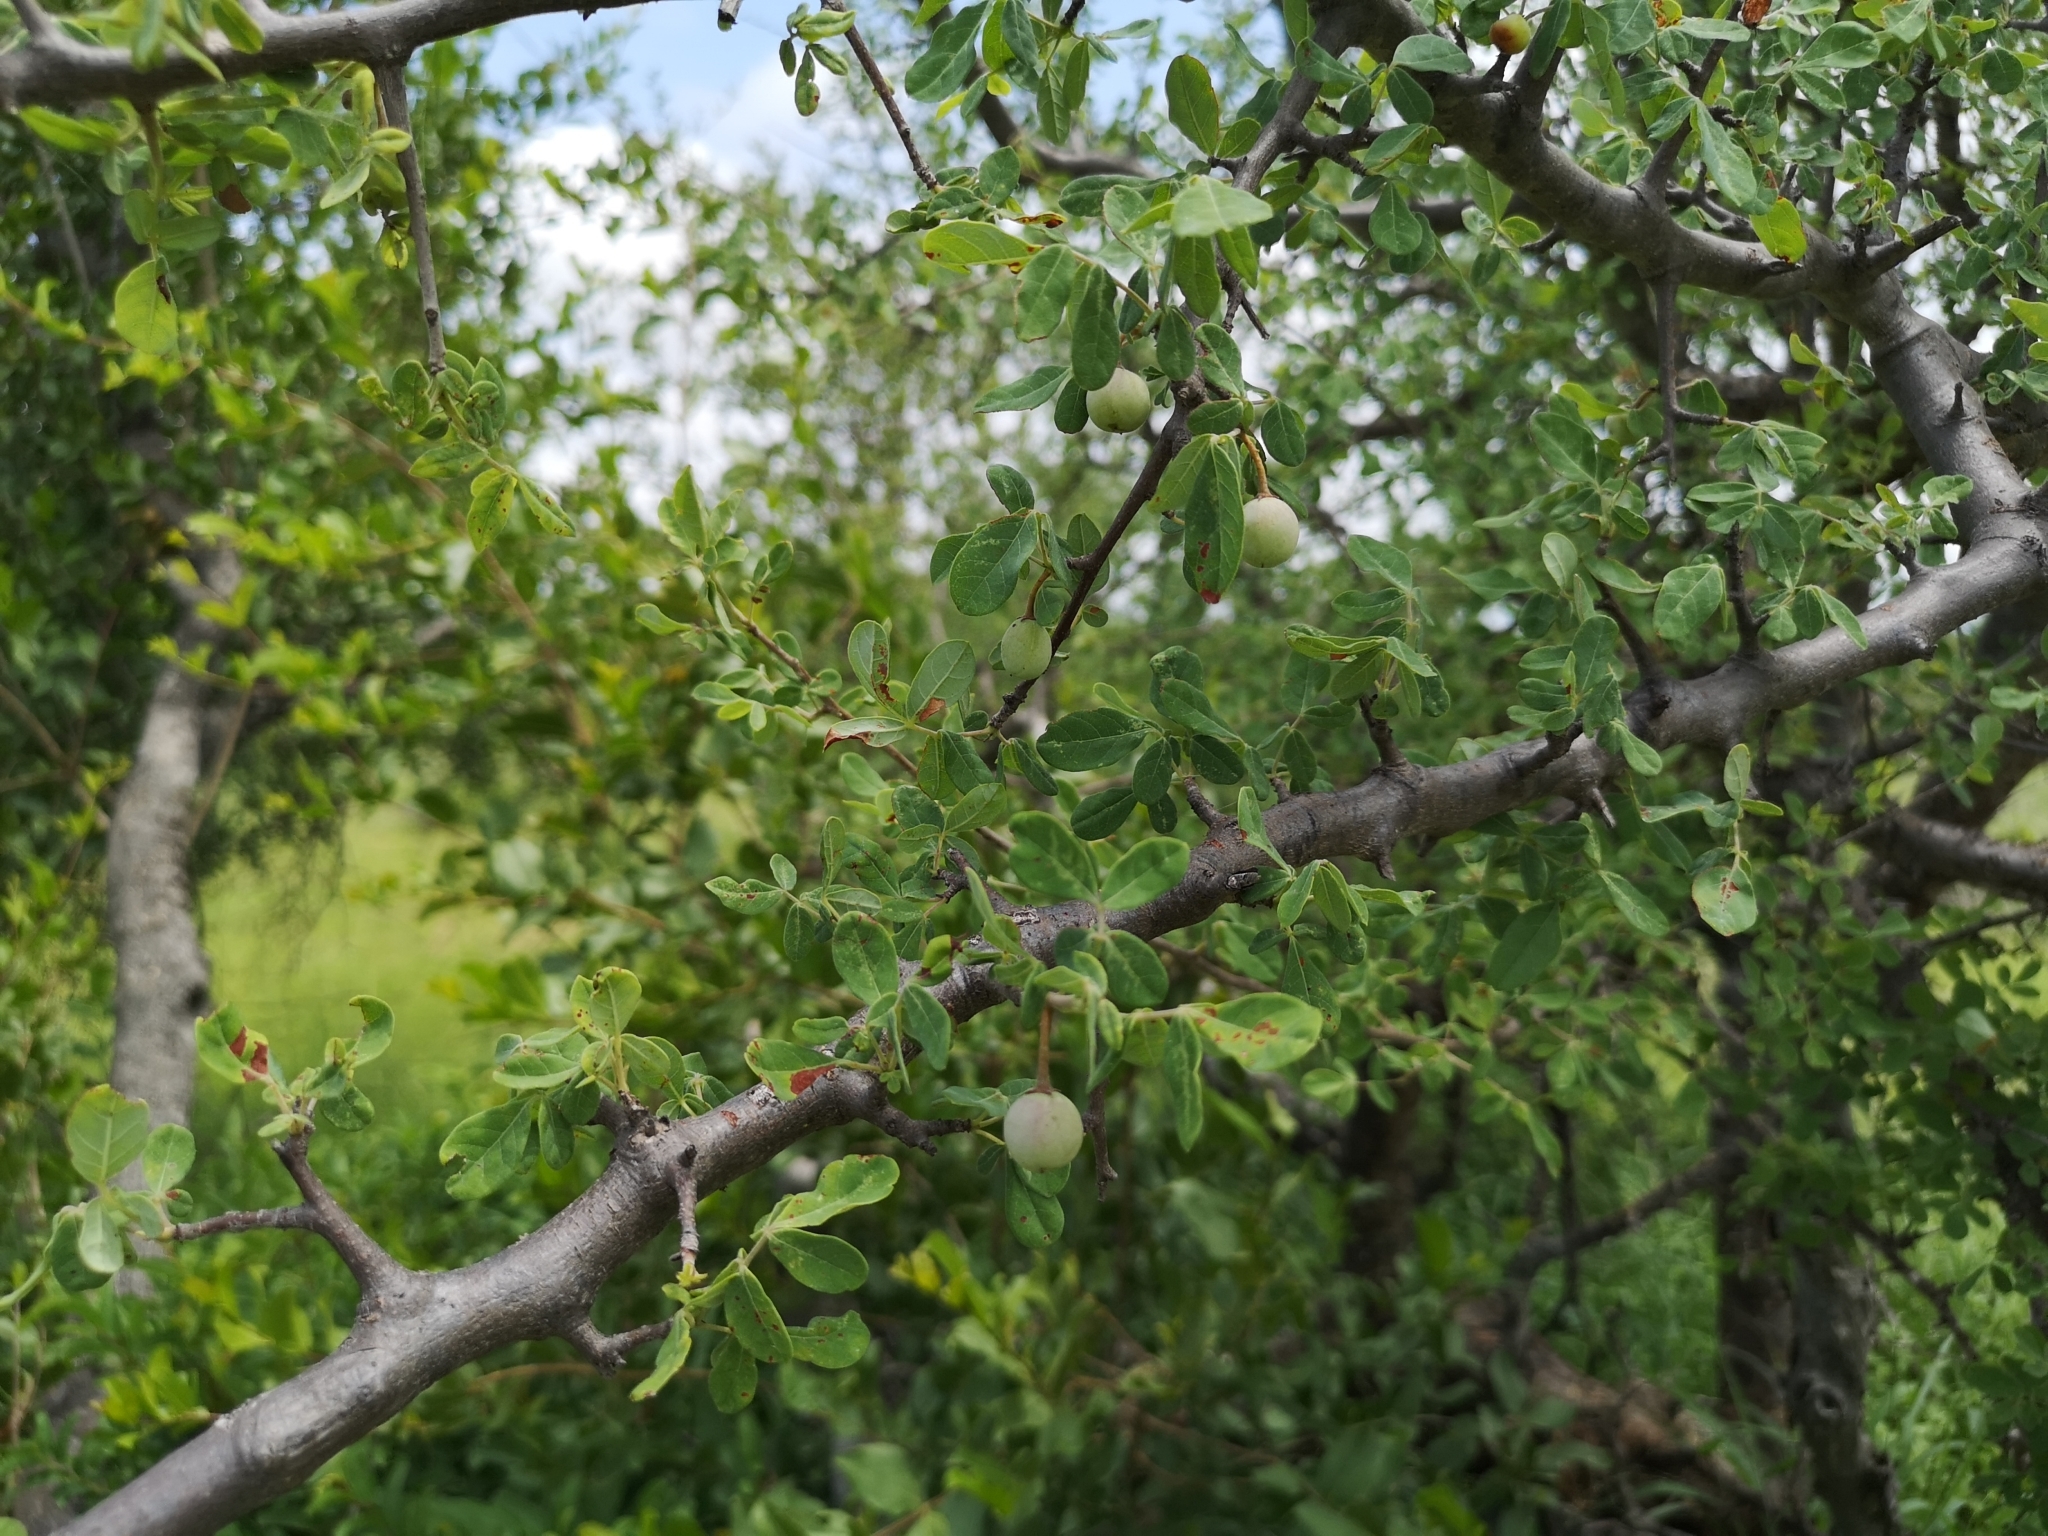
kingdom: Plantae
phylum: Tracheophyta
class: Magnoliopsida
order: Sapindales
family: Burseraceae
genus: Commiphora
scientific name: Commiphora mollis
